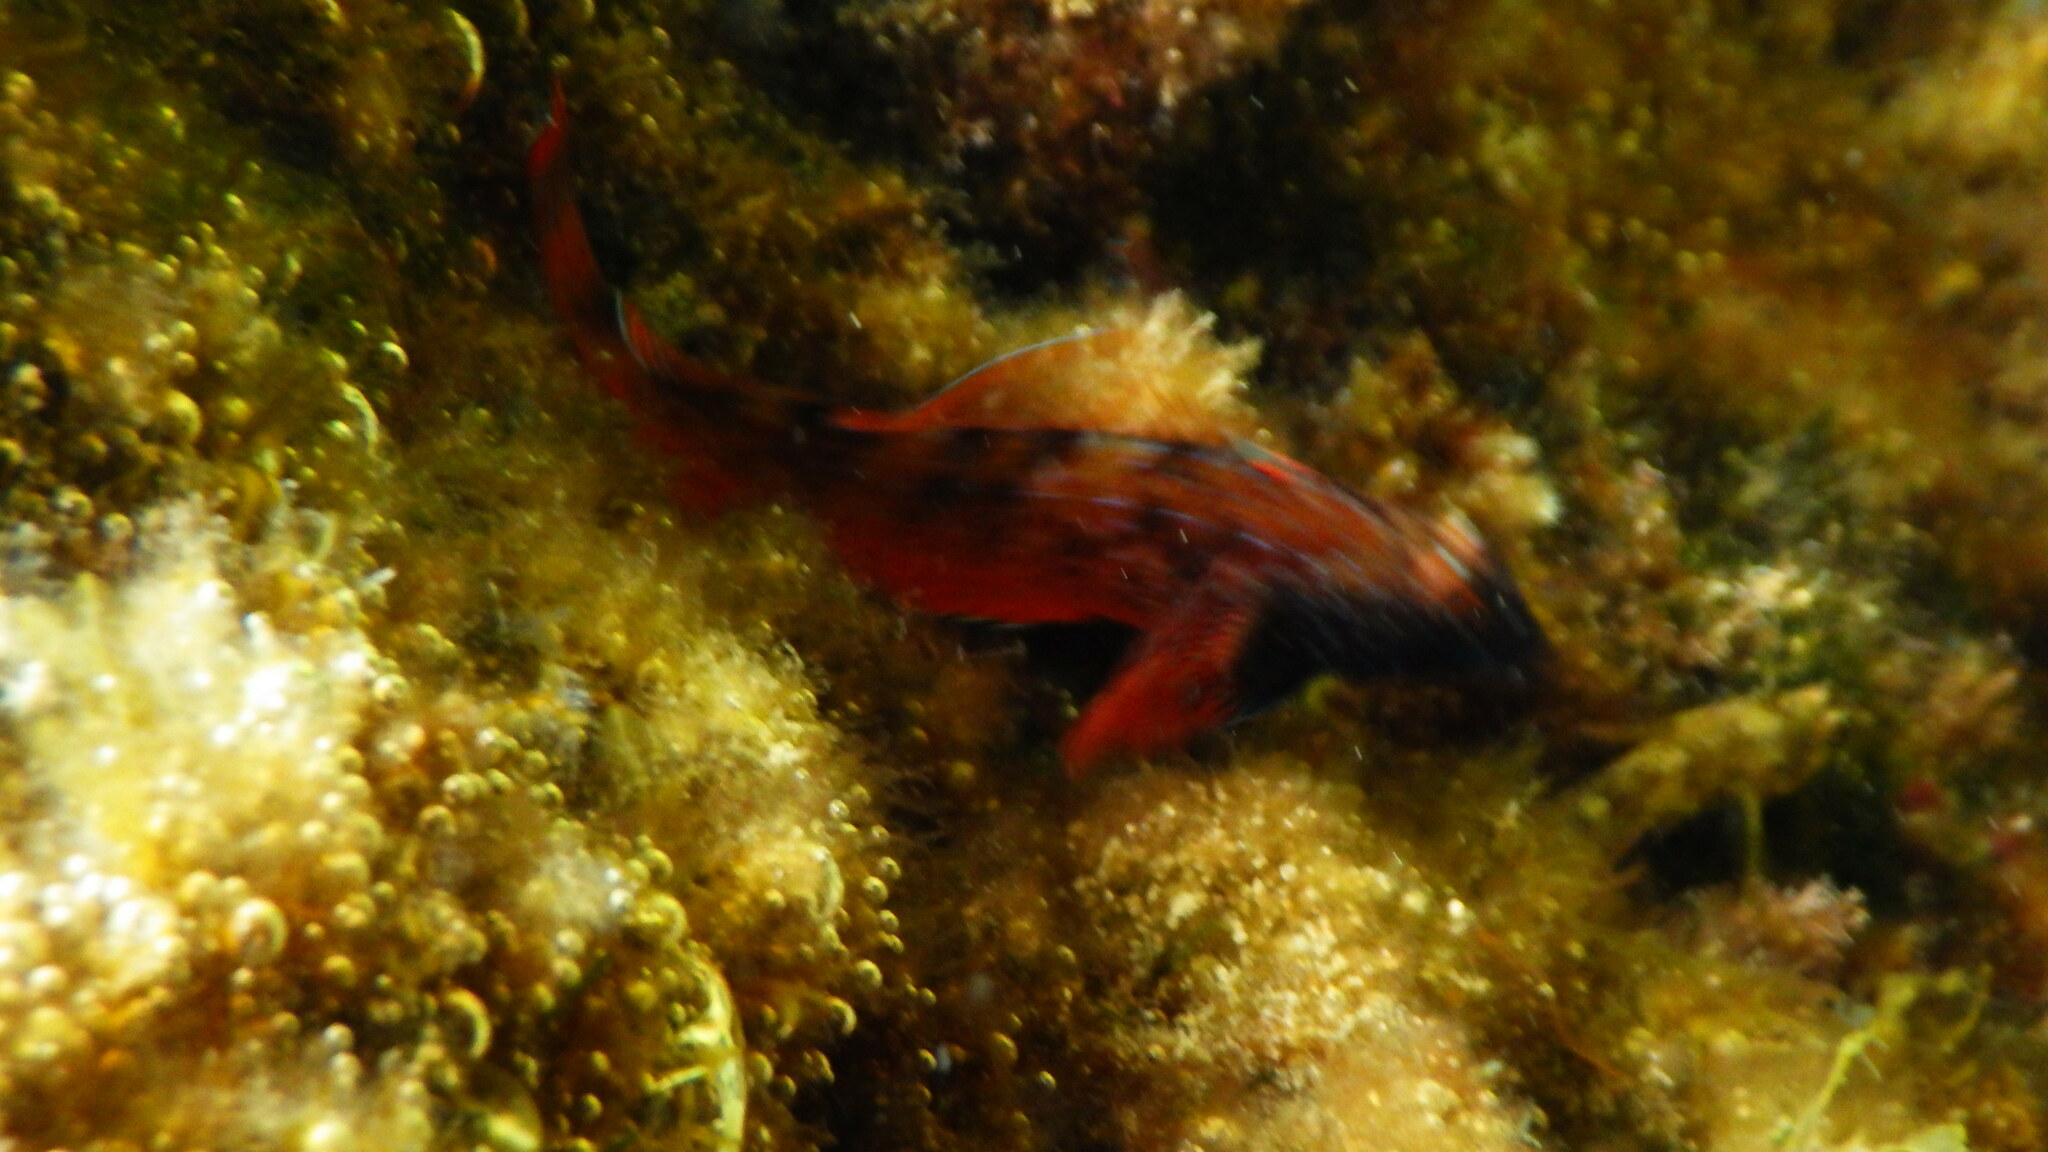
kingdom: Animalia
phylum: Chordata
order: Perciformes
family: Tripterygiidae
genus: Tripterygion
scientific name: Tripterygion tripteronotum
